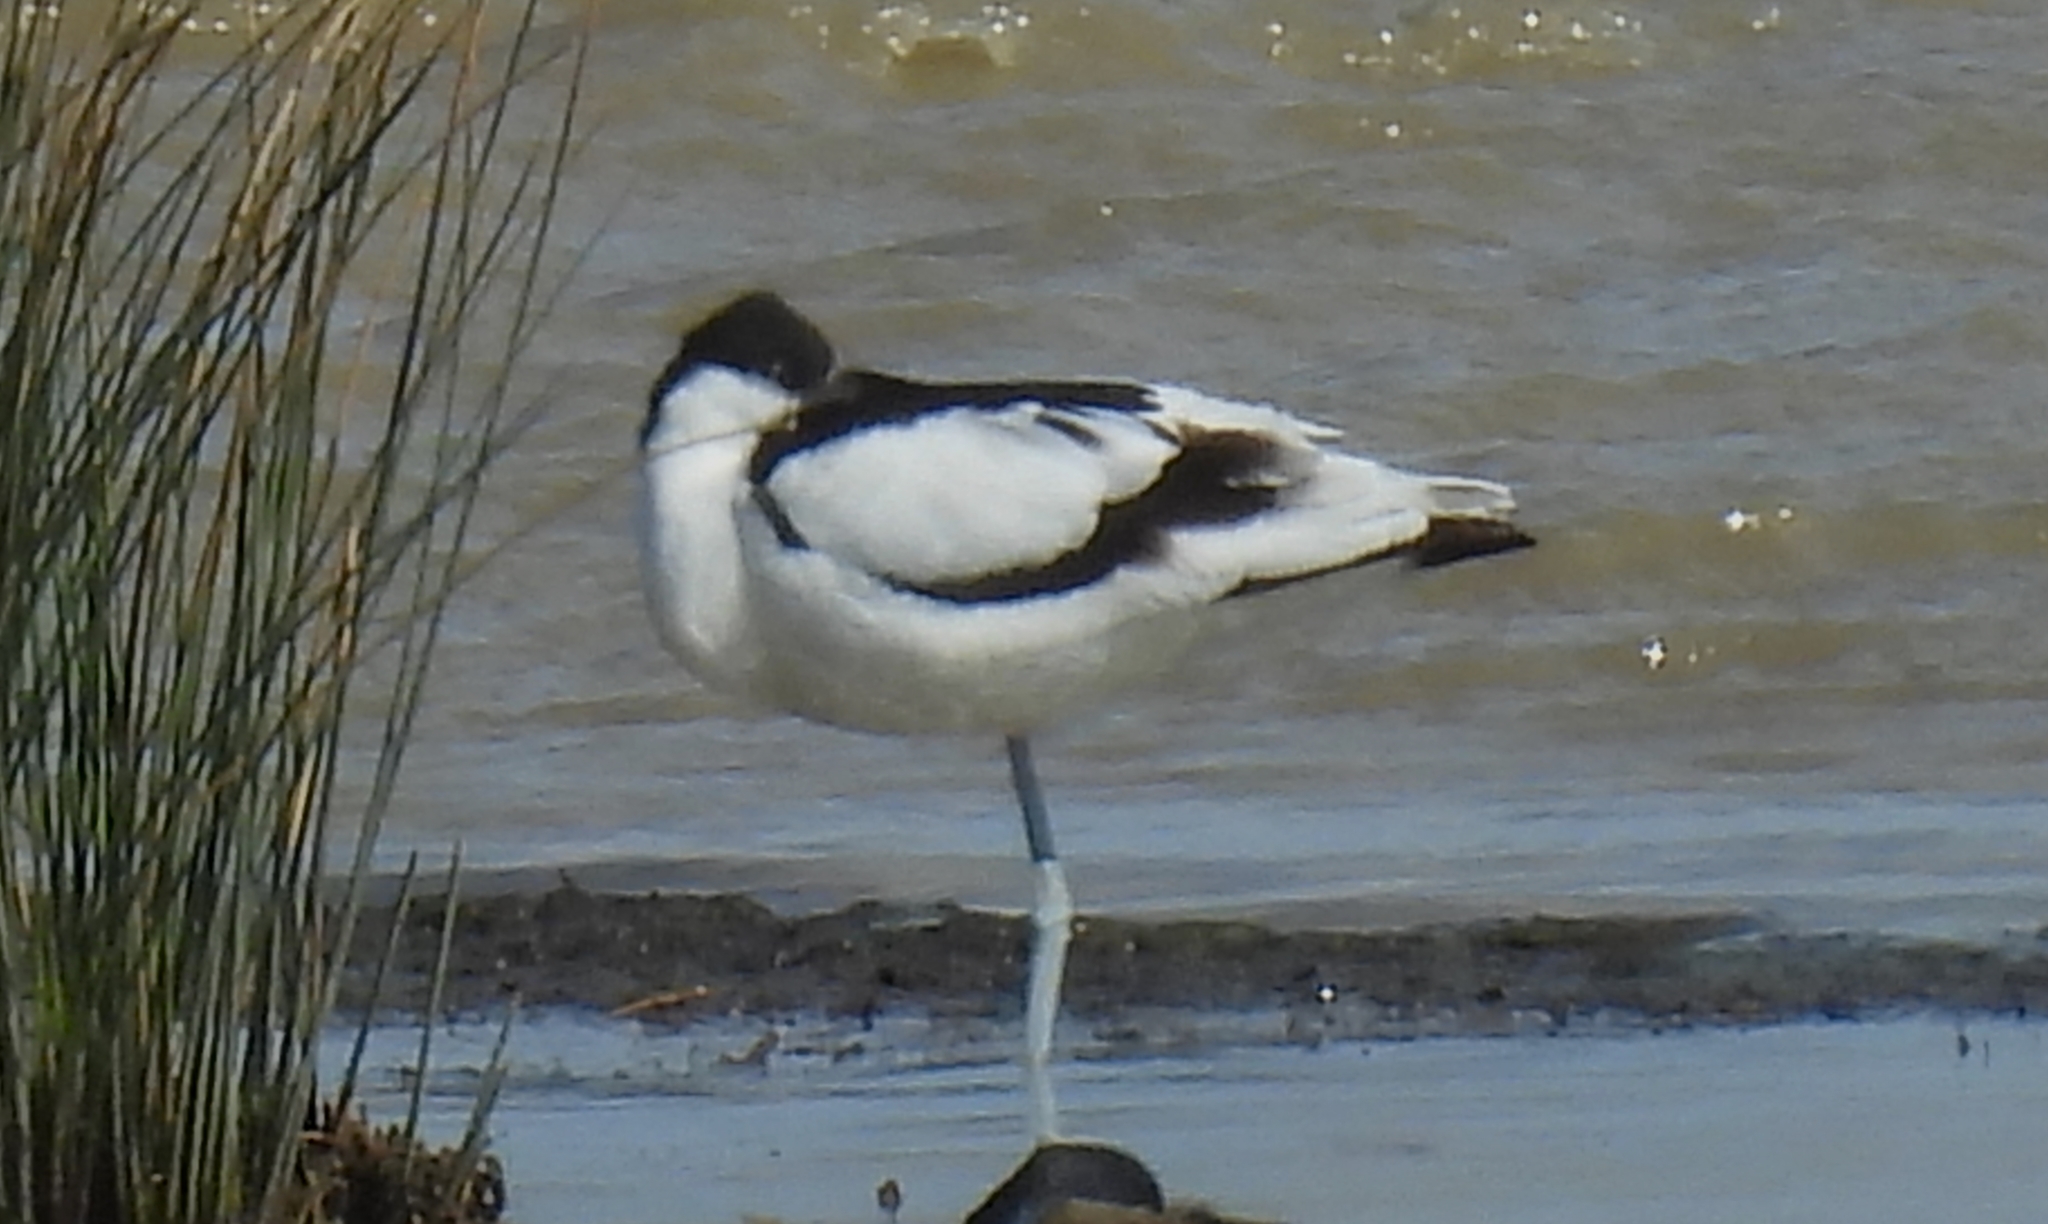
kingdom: Animalia
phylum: Chordata
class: Aves
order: Charadriiformes
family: Recurvirostridae
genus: Recurvirostra
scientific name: Recurvirostra avosetta
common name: Pied avocet
